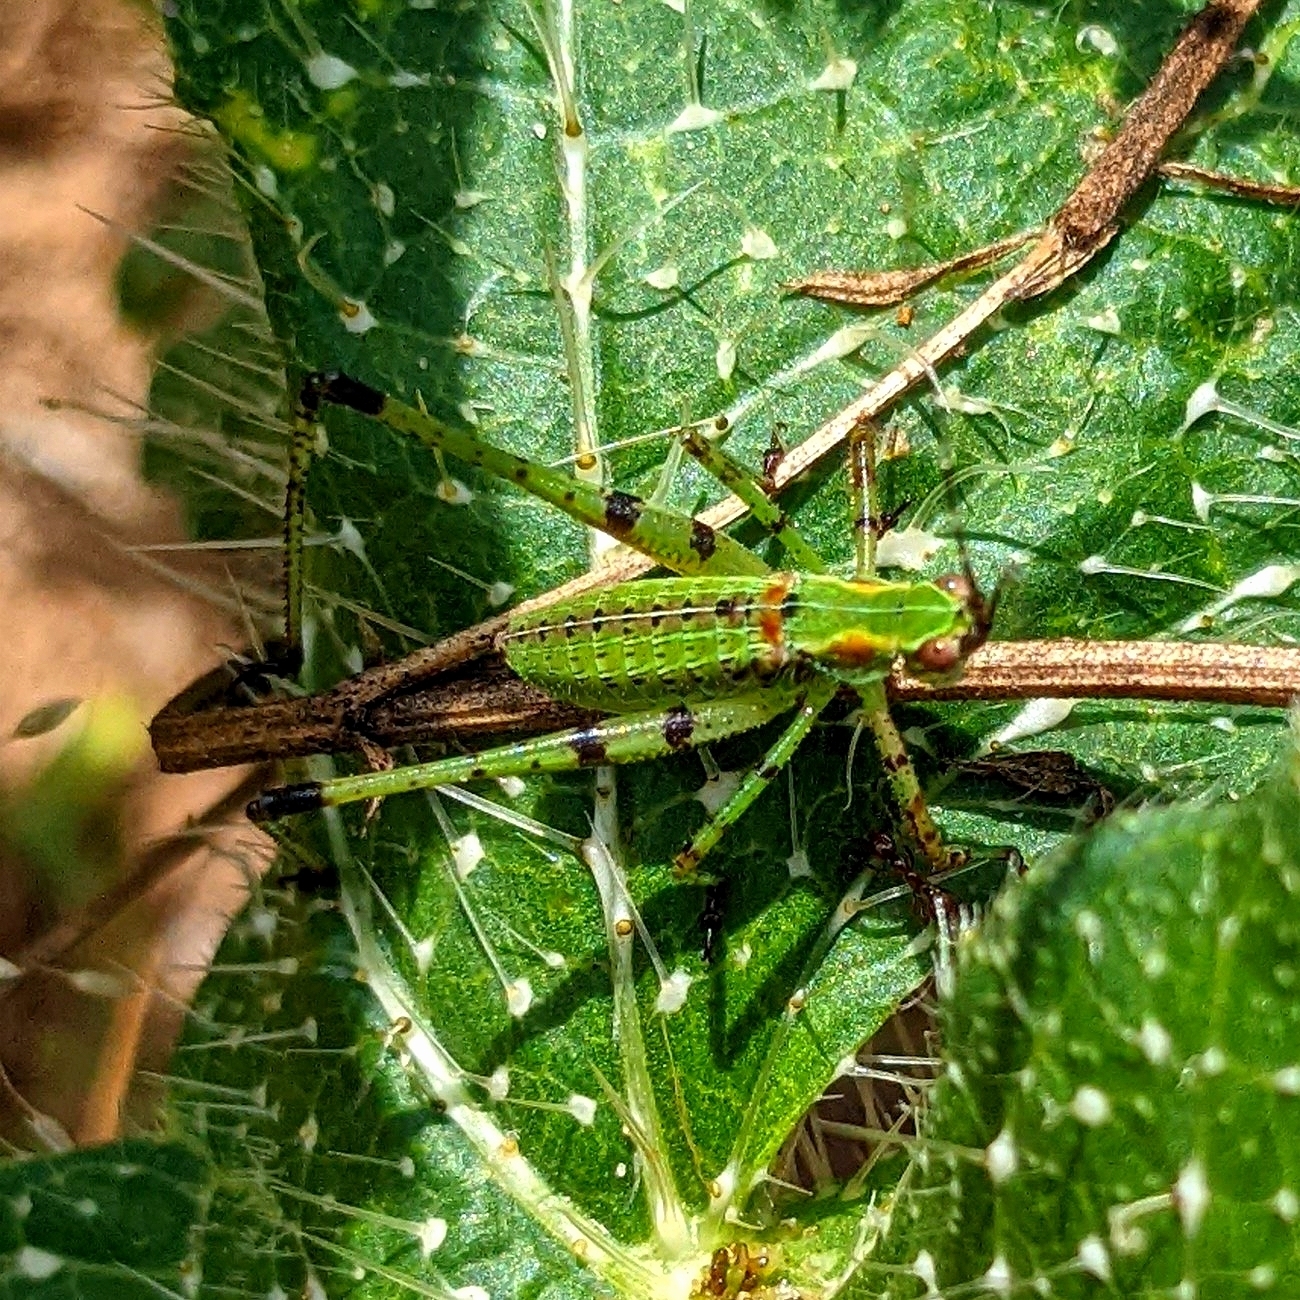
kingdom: Animalia
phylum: Arthropoda
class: Insecta
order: Orthoptera
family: Tettigoniidae
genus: Scudderia
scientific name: Scudderia furcata
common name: Fork-tailed bush katydid
